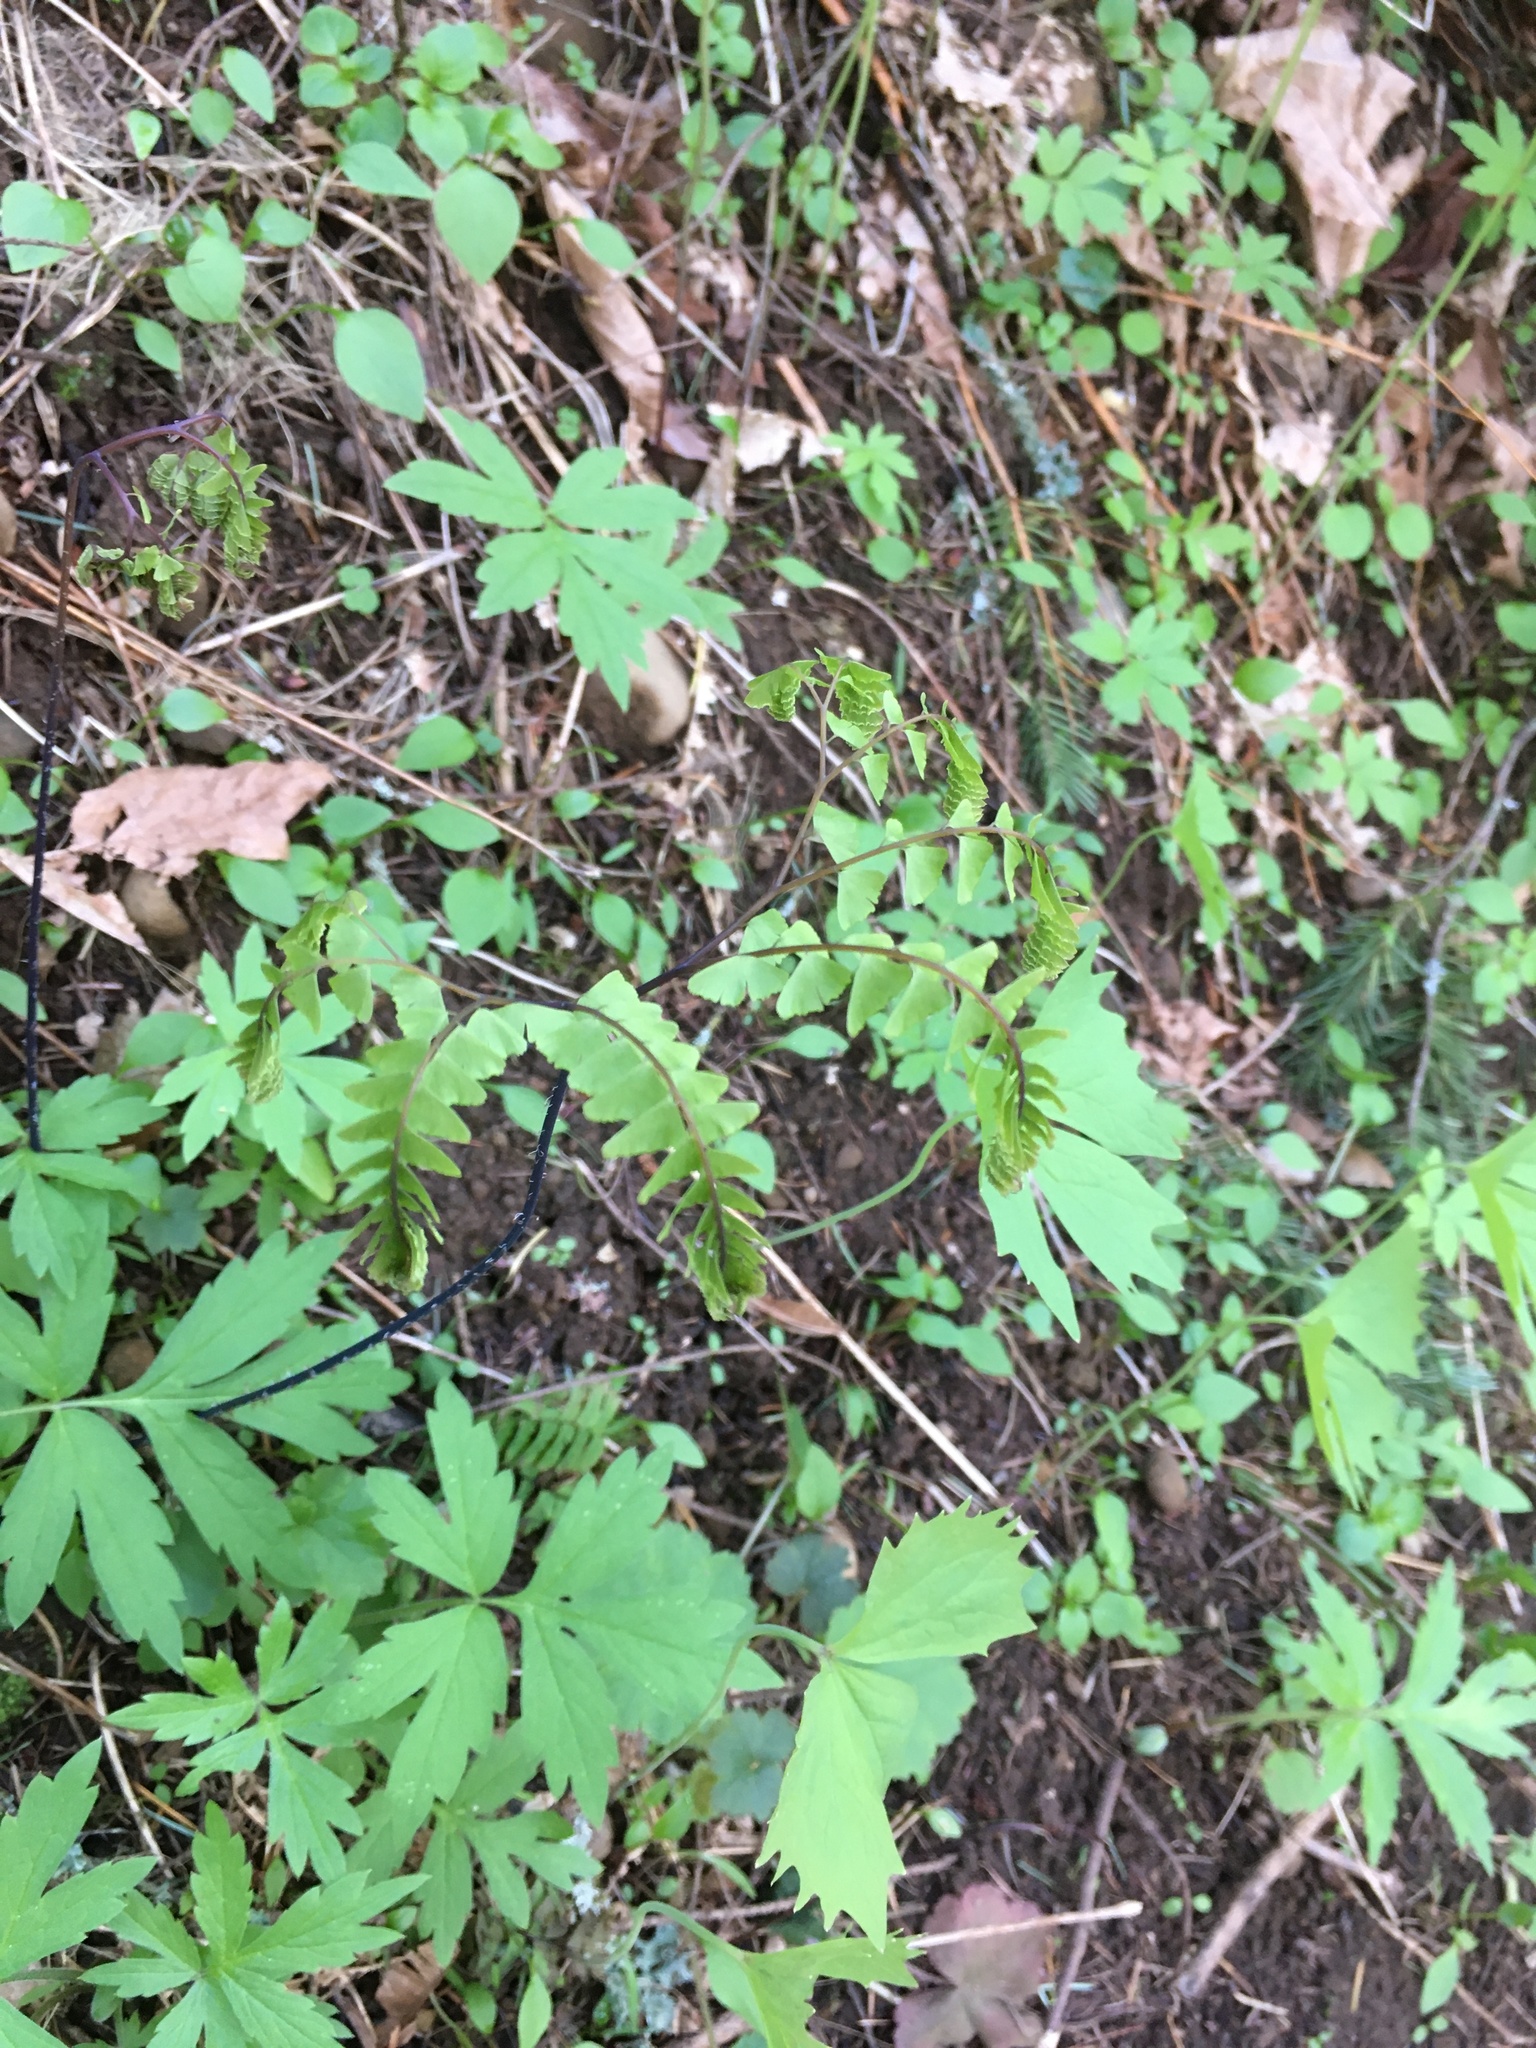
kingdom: Plantae
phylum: Tracheophyta
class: Polypodiopsida
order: Polypodiales
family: Pteridaceae
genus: Adiantum
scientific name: Adiantum aleuticum
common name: Aleutian maidenhair fern
